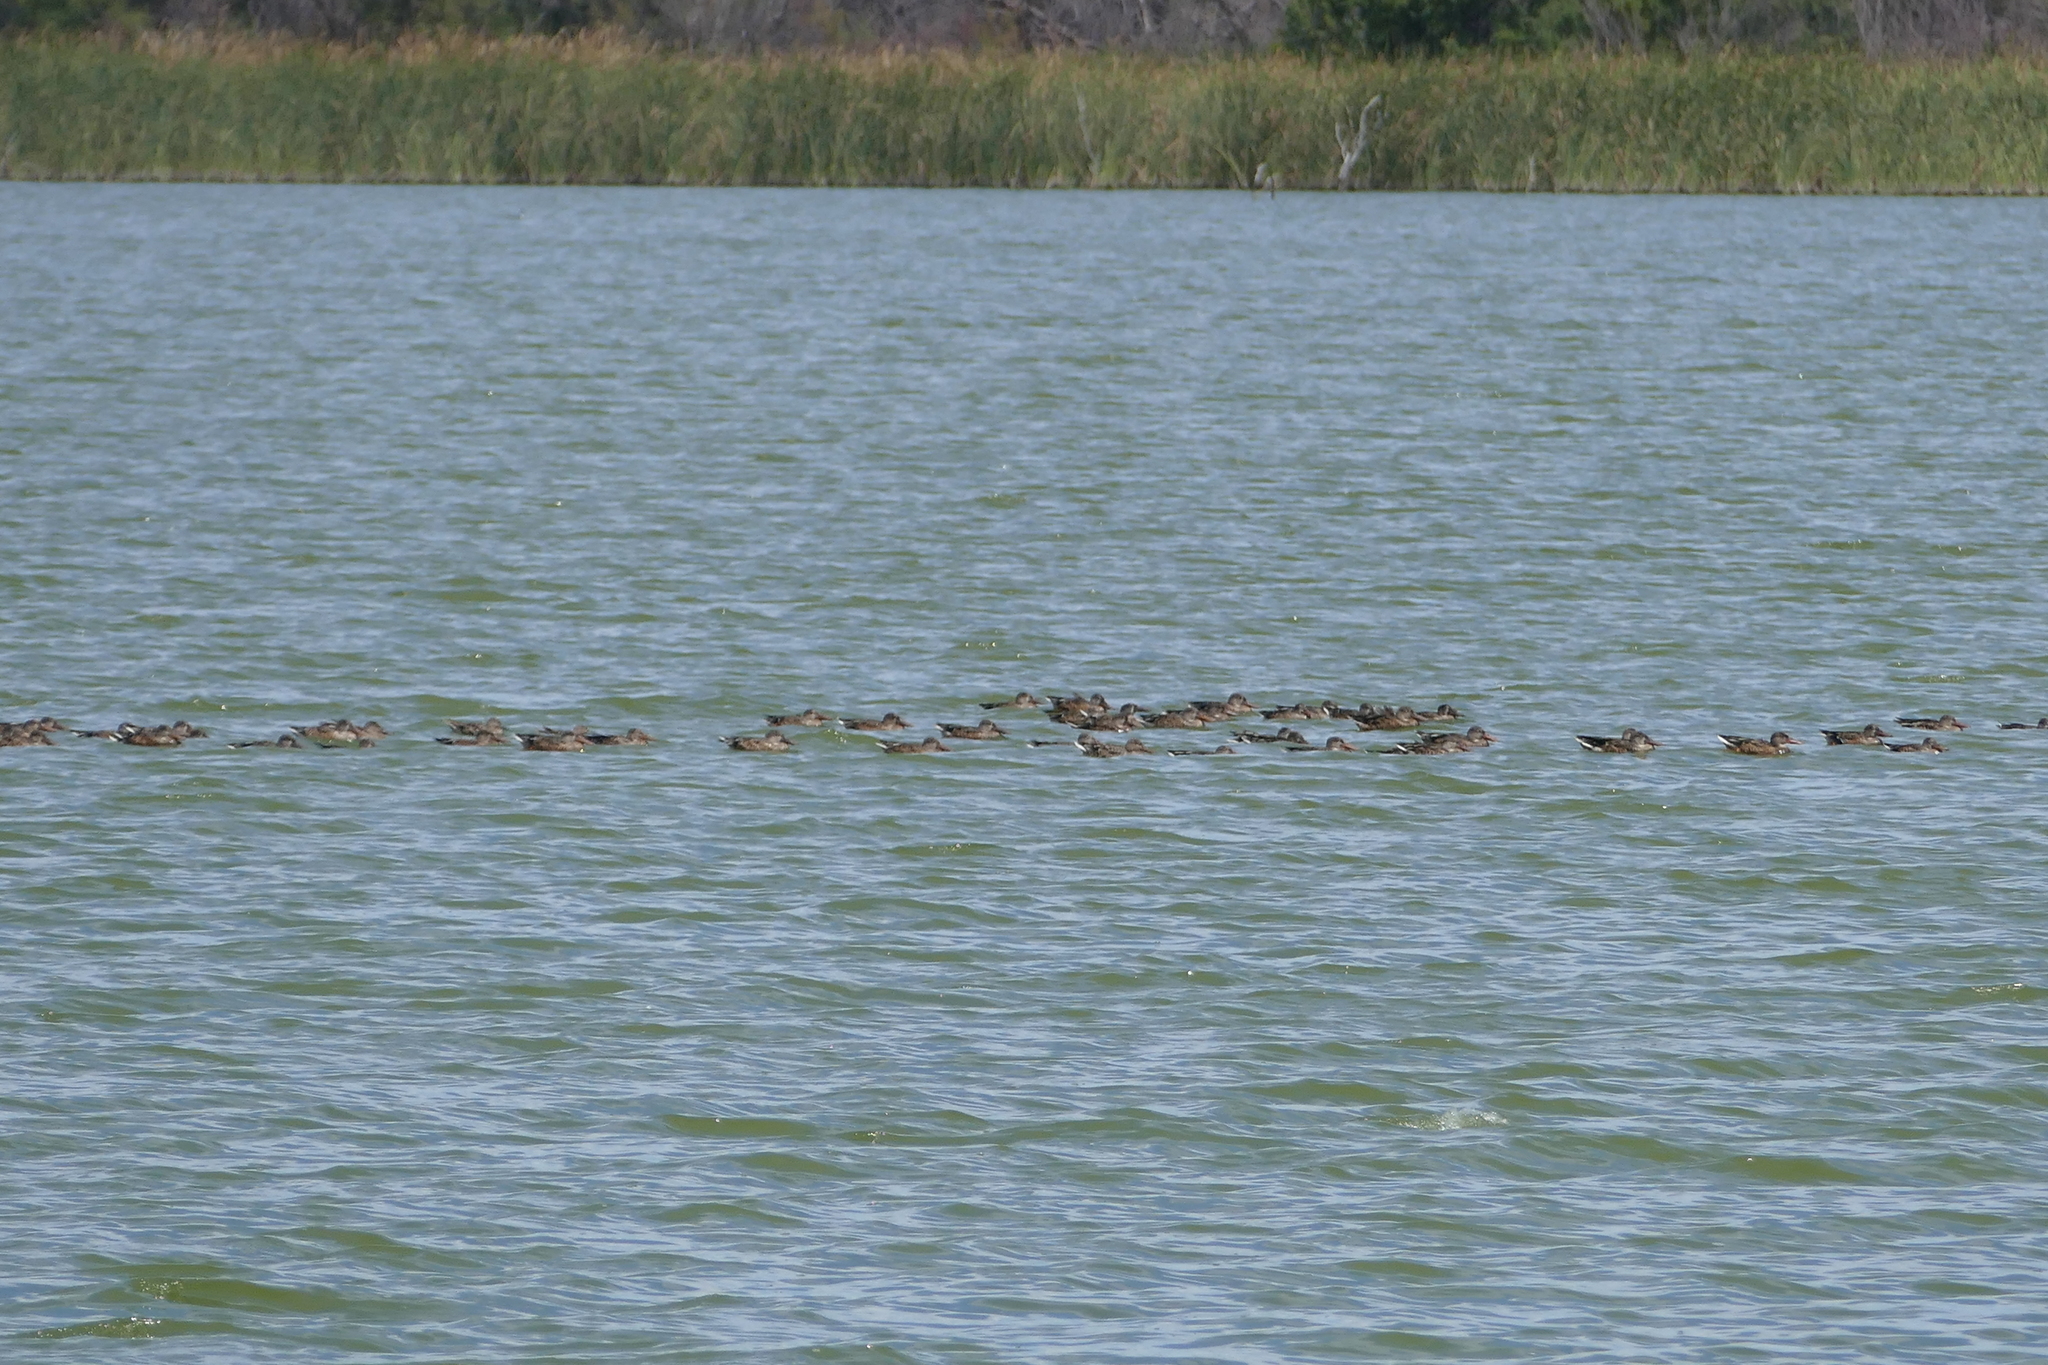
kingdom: Animalia
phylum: Chordata
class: Aves
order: Anseriformes
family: Anatidae
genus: Spatula
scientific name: Spatula clypeata
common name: Northern shoveler
